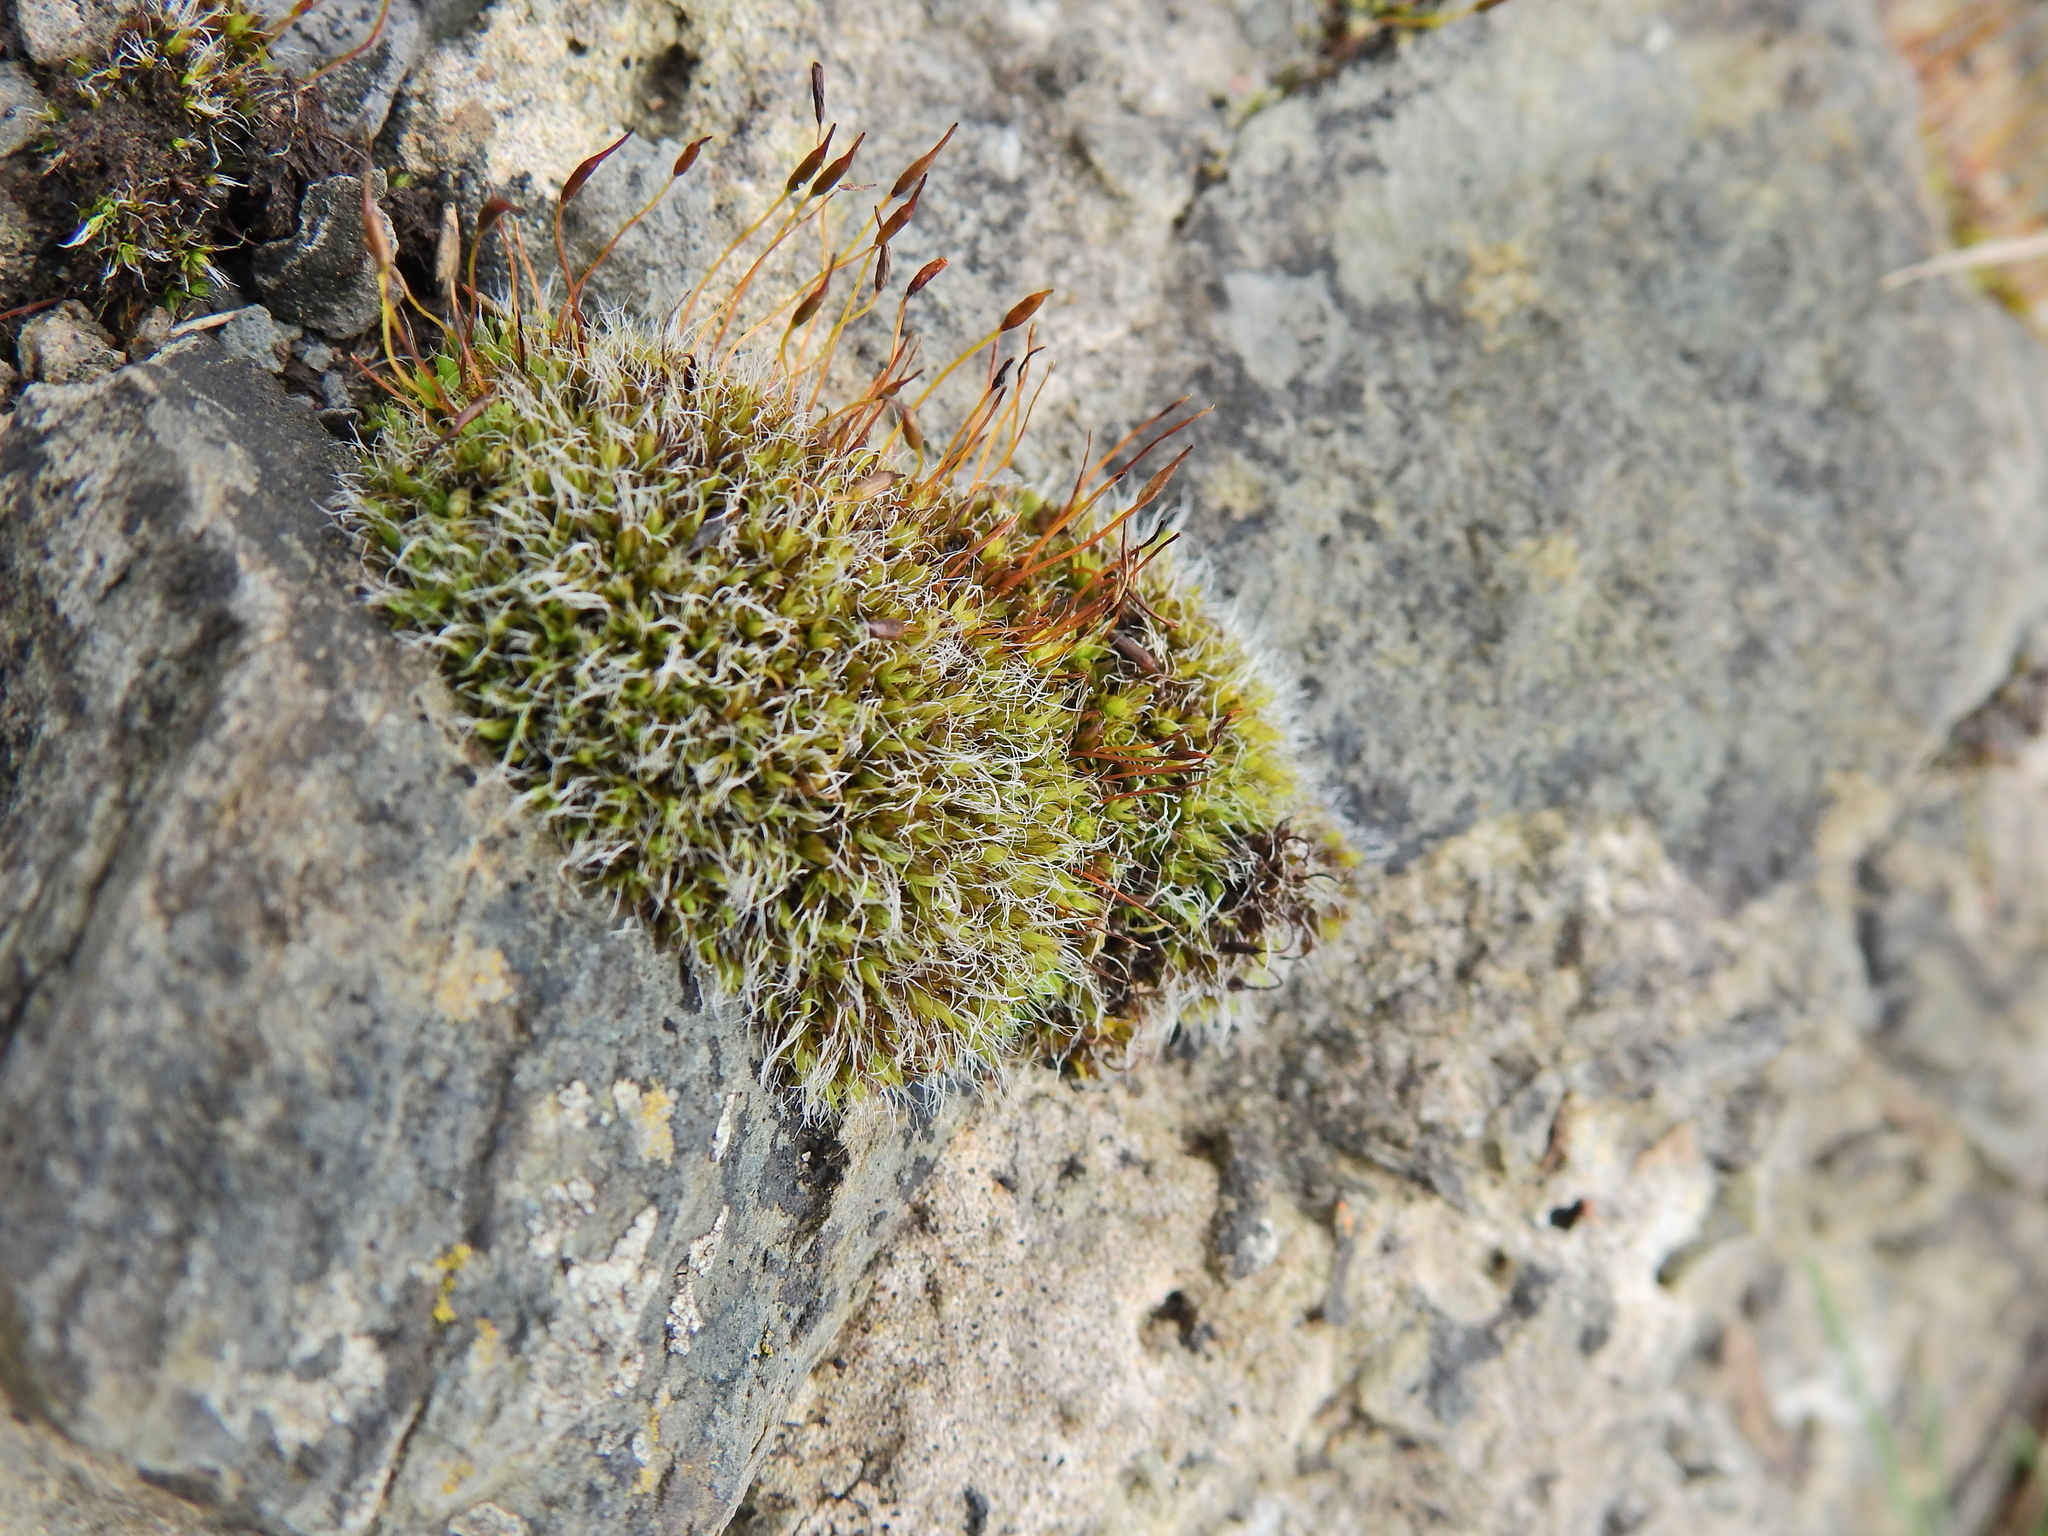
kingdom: Plantae
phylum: Bryophyta
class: Bryopsida
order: Grimmiales
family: Grimmiaceae
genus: Grimmia
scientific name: Grimmia pulvinata
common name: Grey-cushioned grimmia
